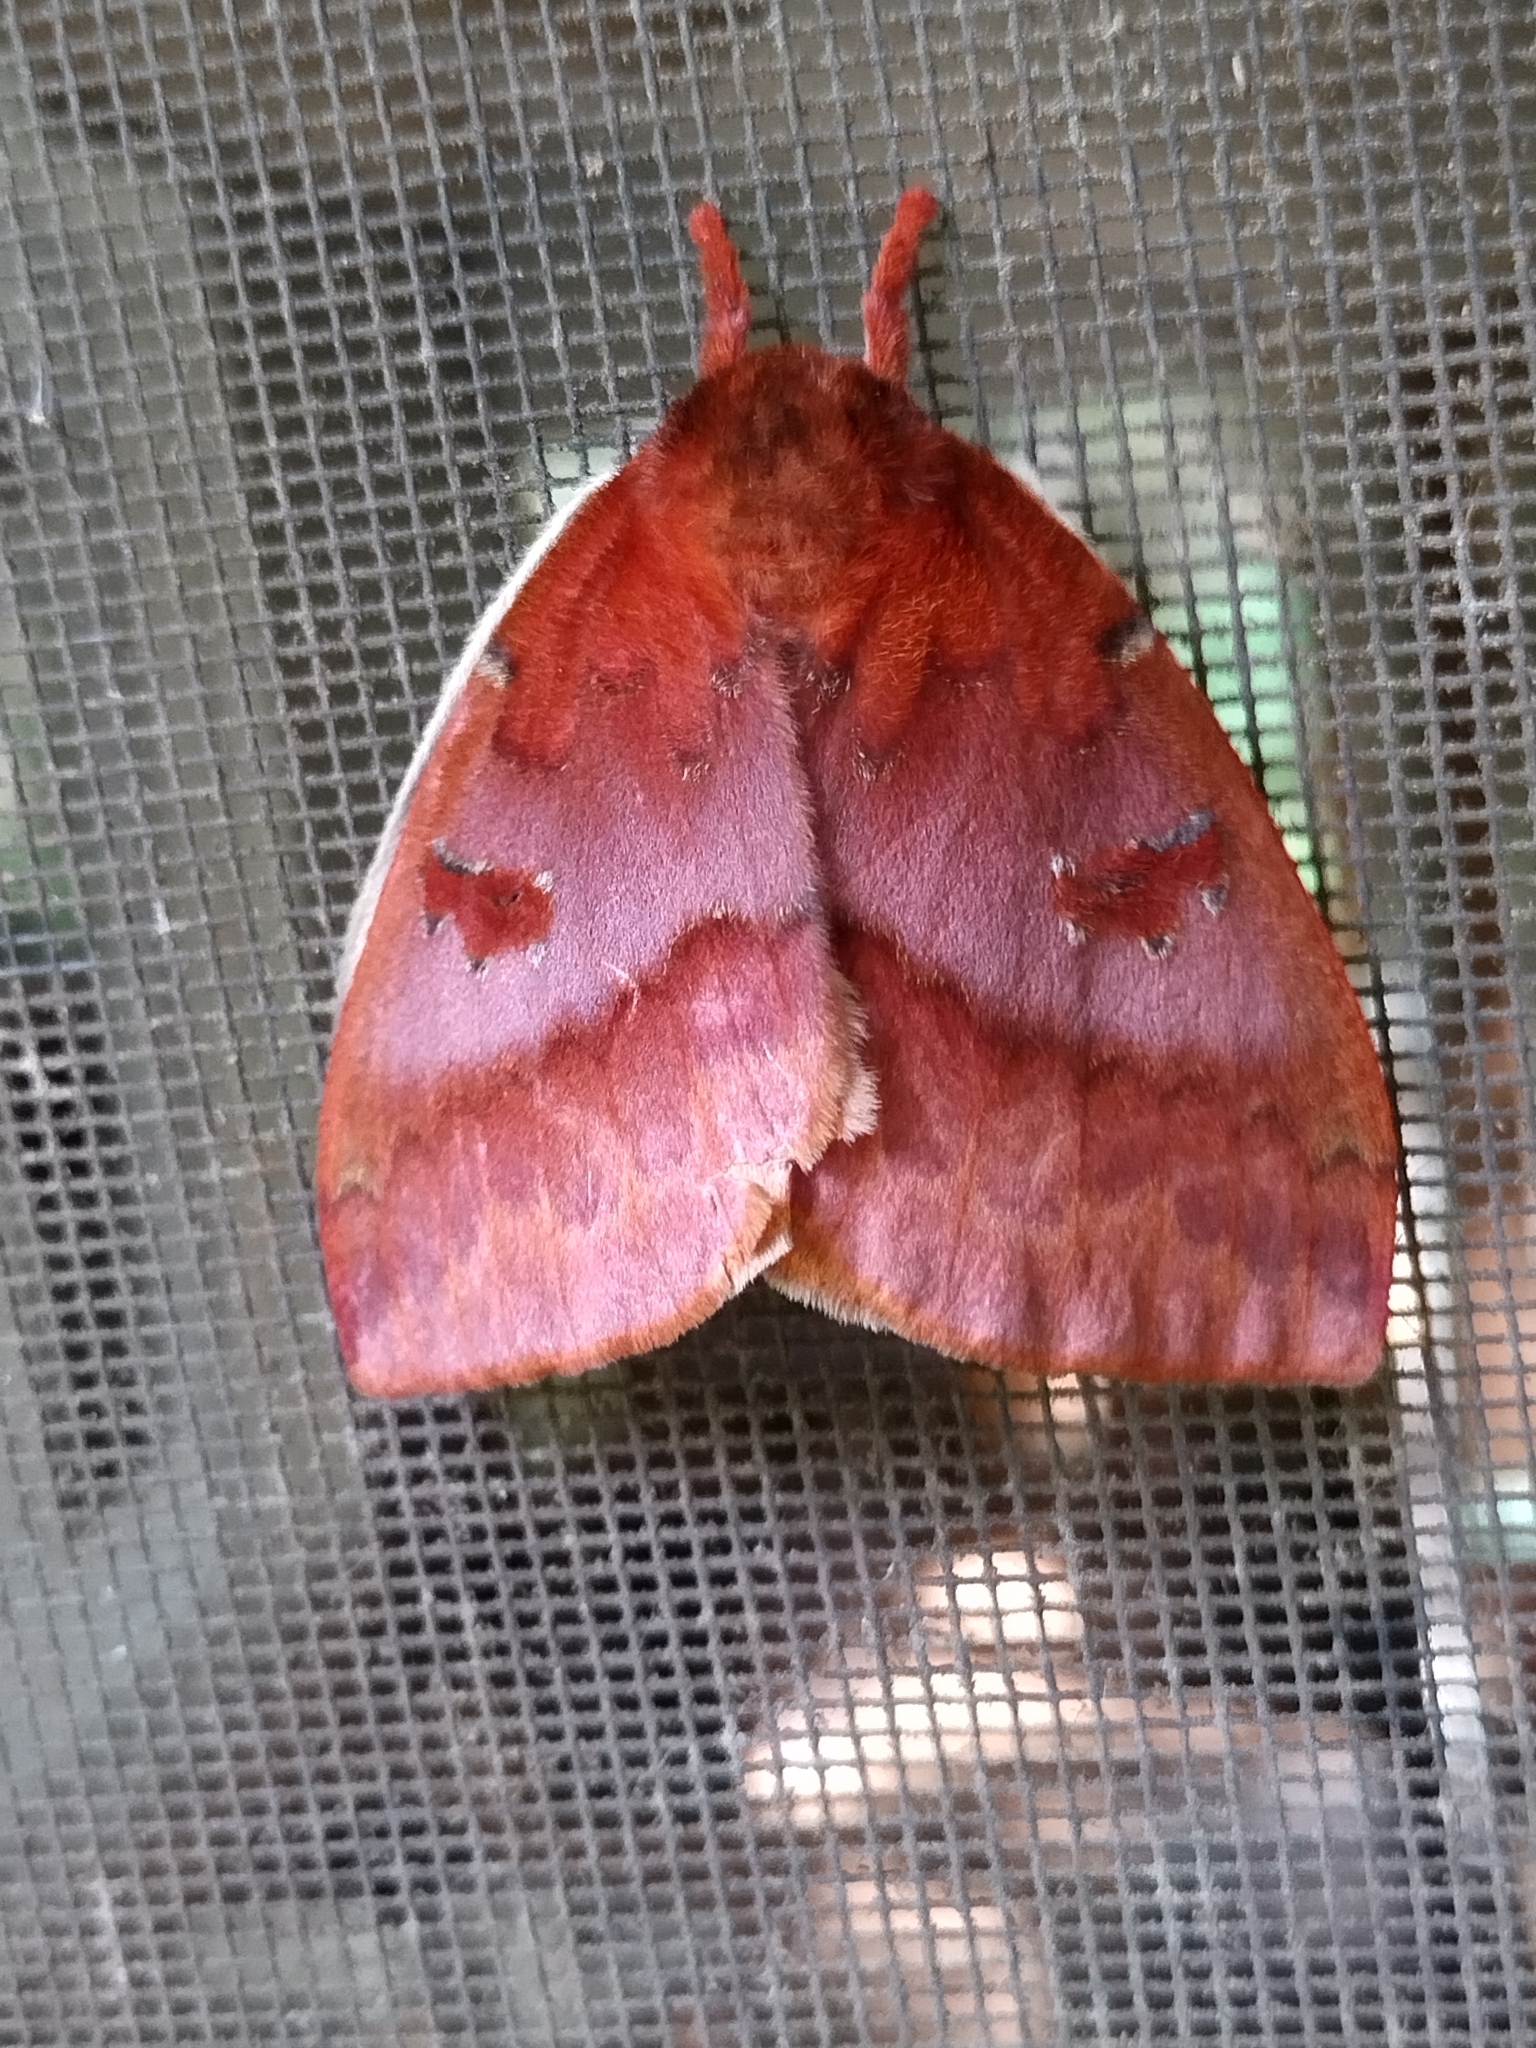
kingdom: Animalia
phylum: Arthropoda
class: Insecta
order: Lepidoptera
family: Saturniidae
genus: Automeris
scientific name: Automeris io
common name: Io moth
